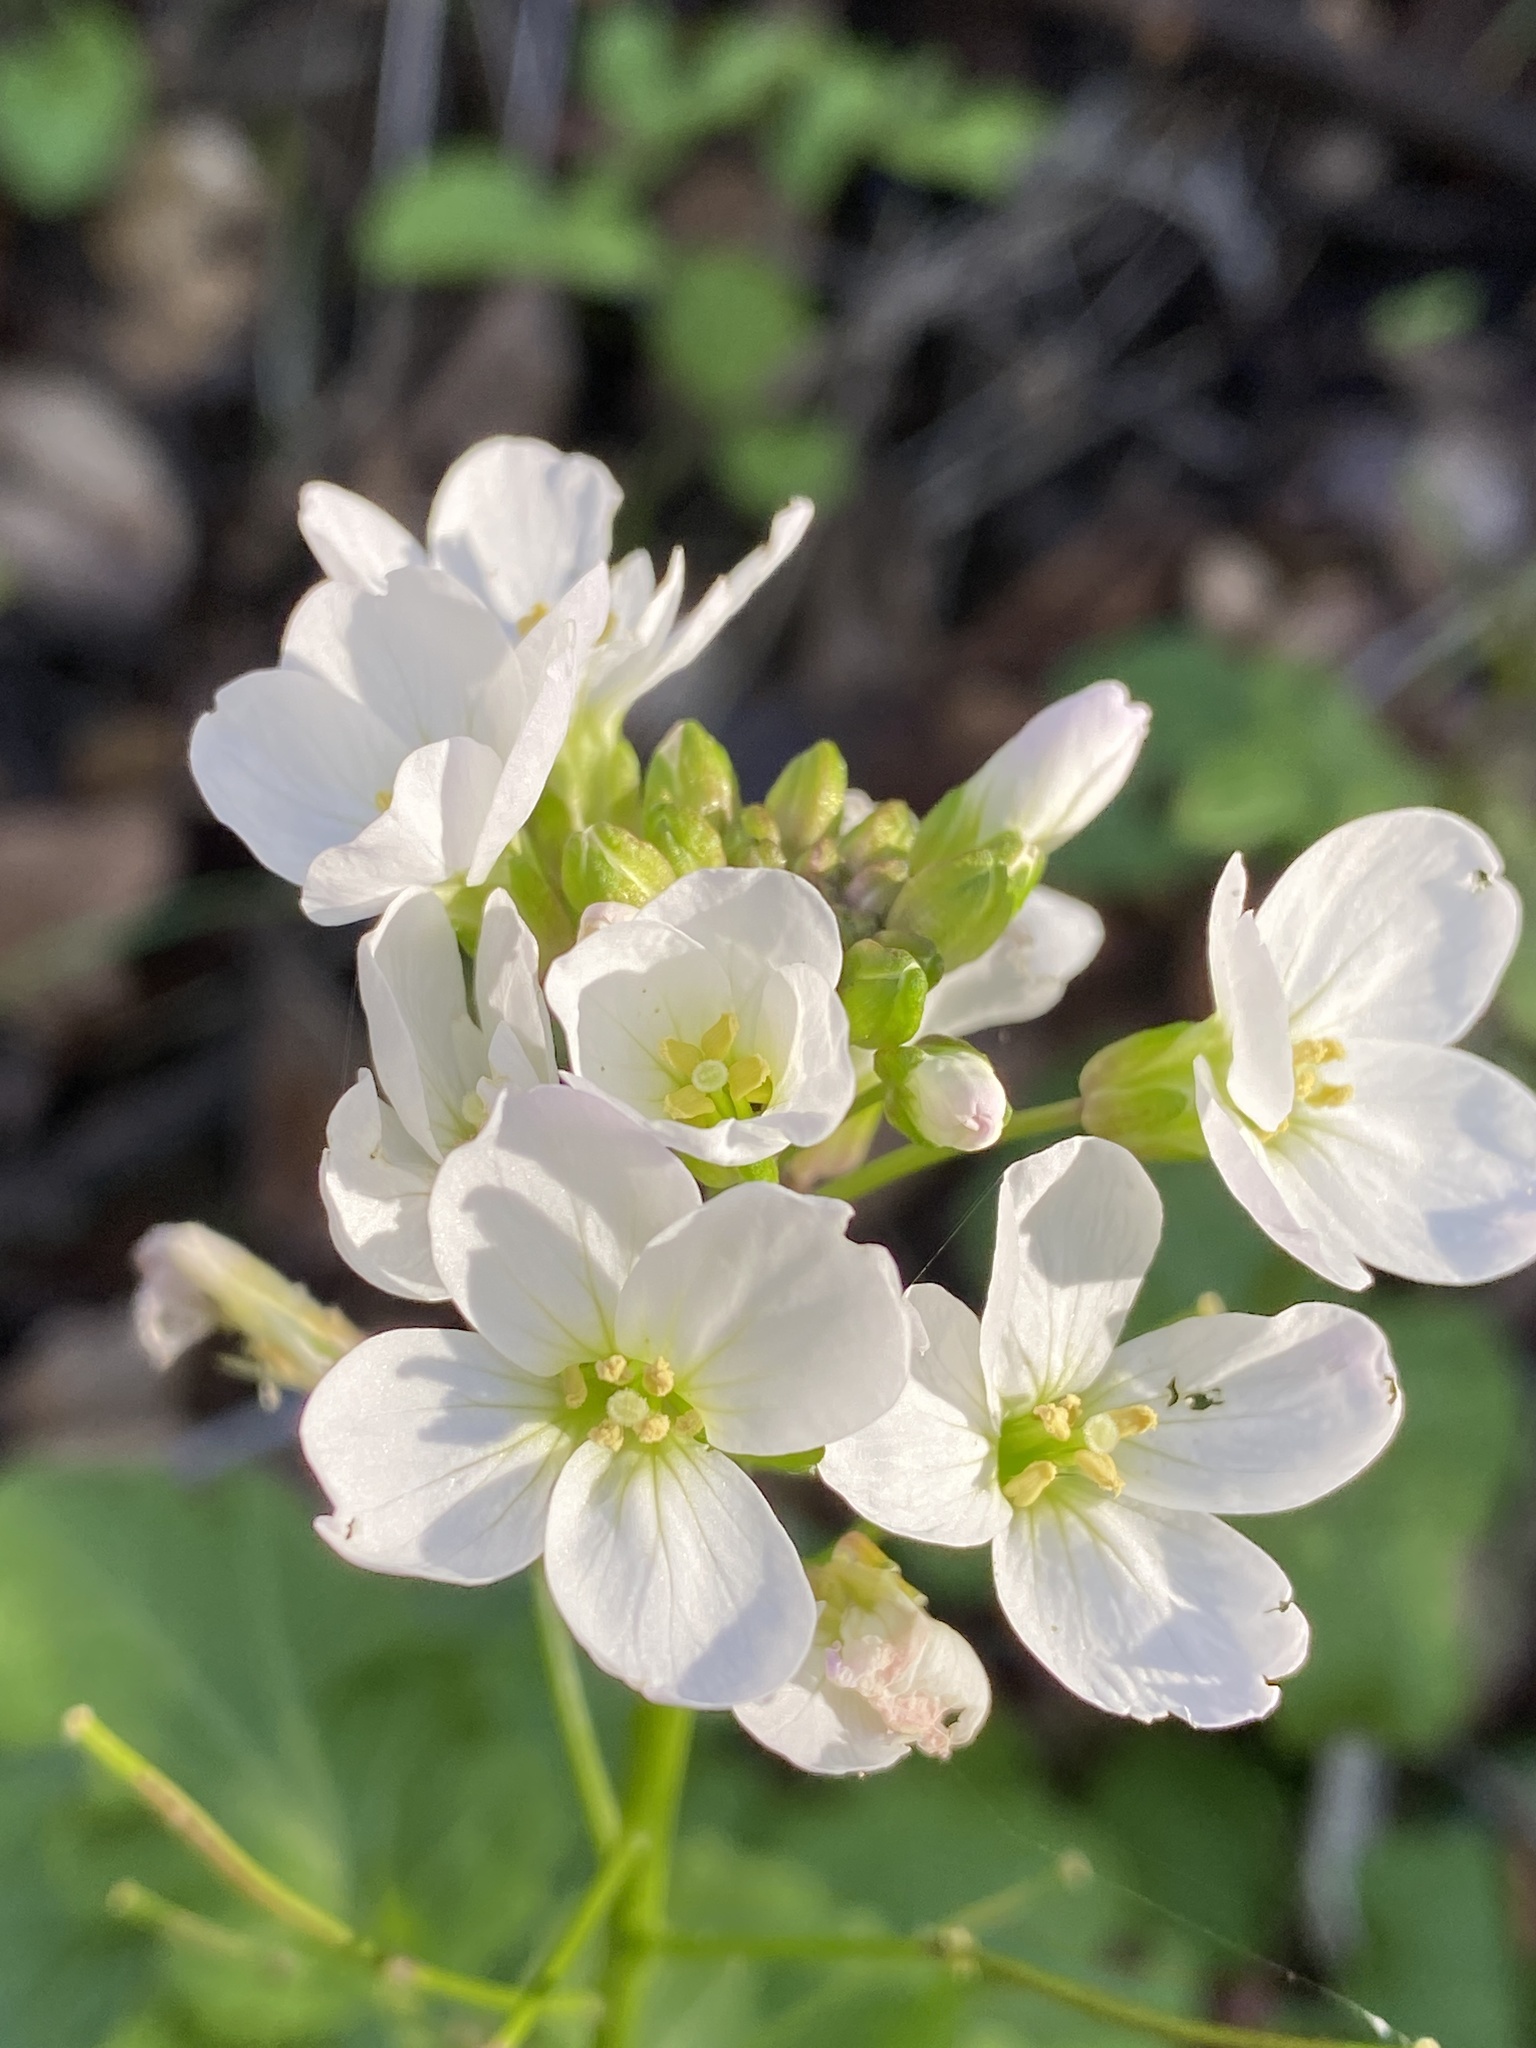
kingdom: Plantae
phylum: Tracheophyta
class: Magnoliopsida
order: Brassicales
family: Brassicaceae
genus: Cardamine
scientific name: Cardamine californica
